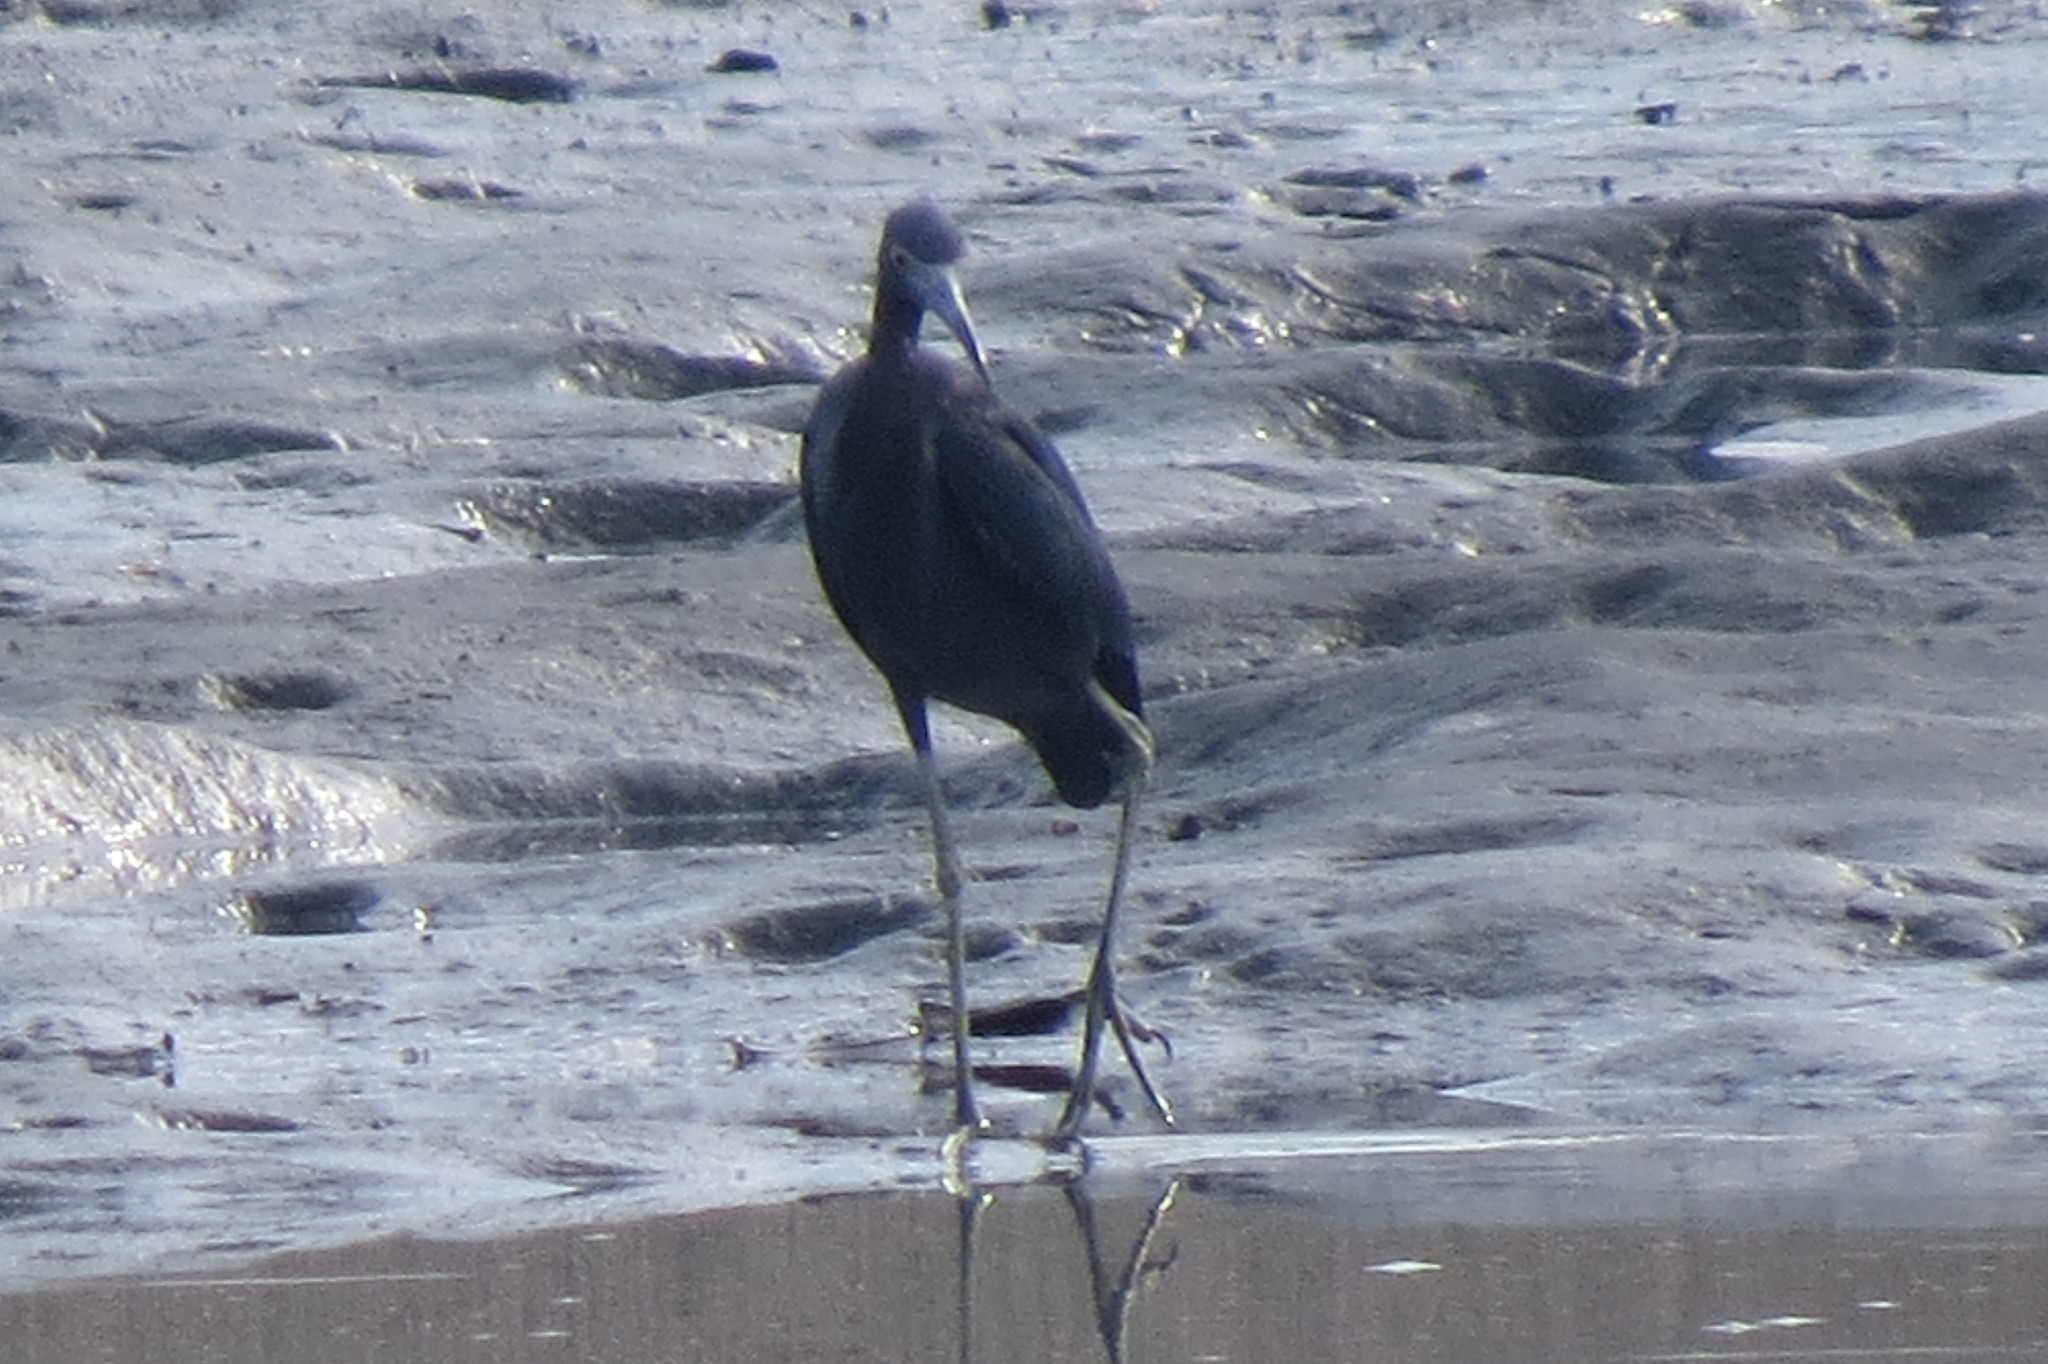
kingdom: Animalia
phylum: Chordata
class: Aves
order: Pelecaniformes
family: Ardeidae
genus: Egretta
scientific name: Egretta caerulea
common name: Little blue heron
